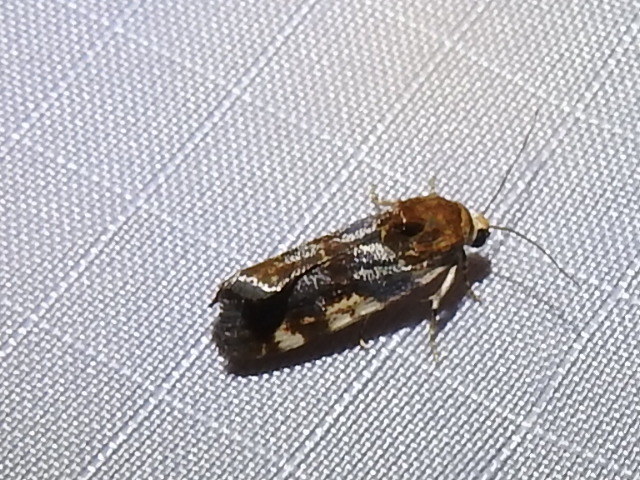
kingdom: Animalia
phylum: Arthropoda
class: Insecta
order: Lepidoptera
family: Noctuidae
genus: Acontia
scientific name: Acontia obatra
